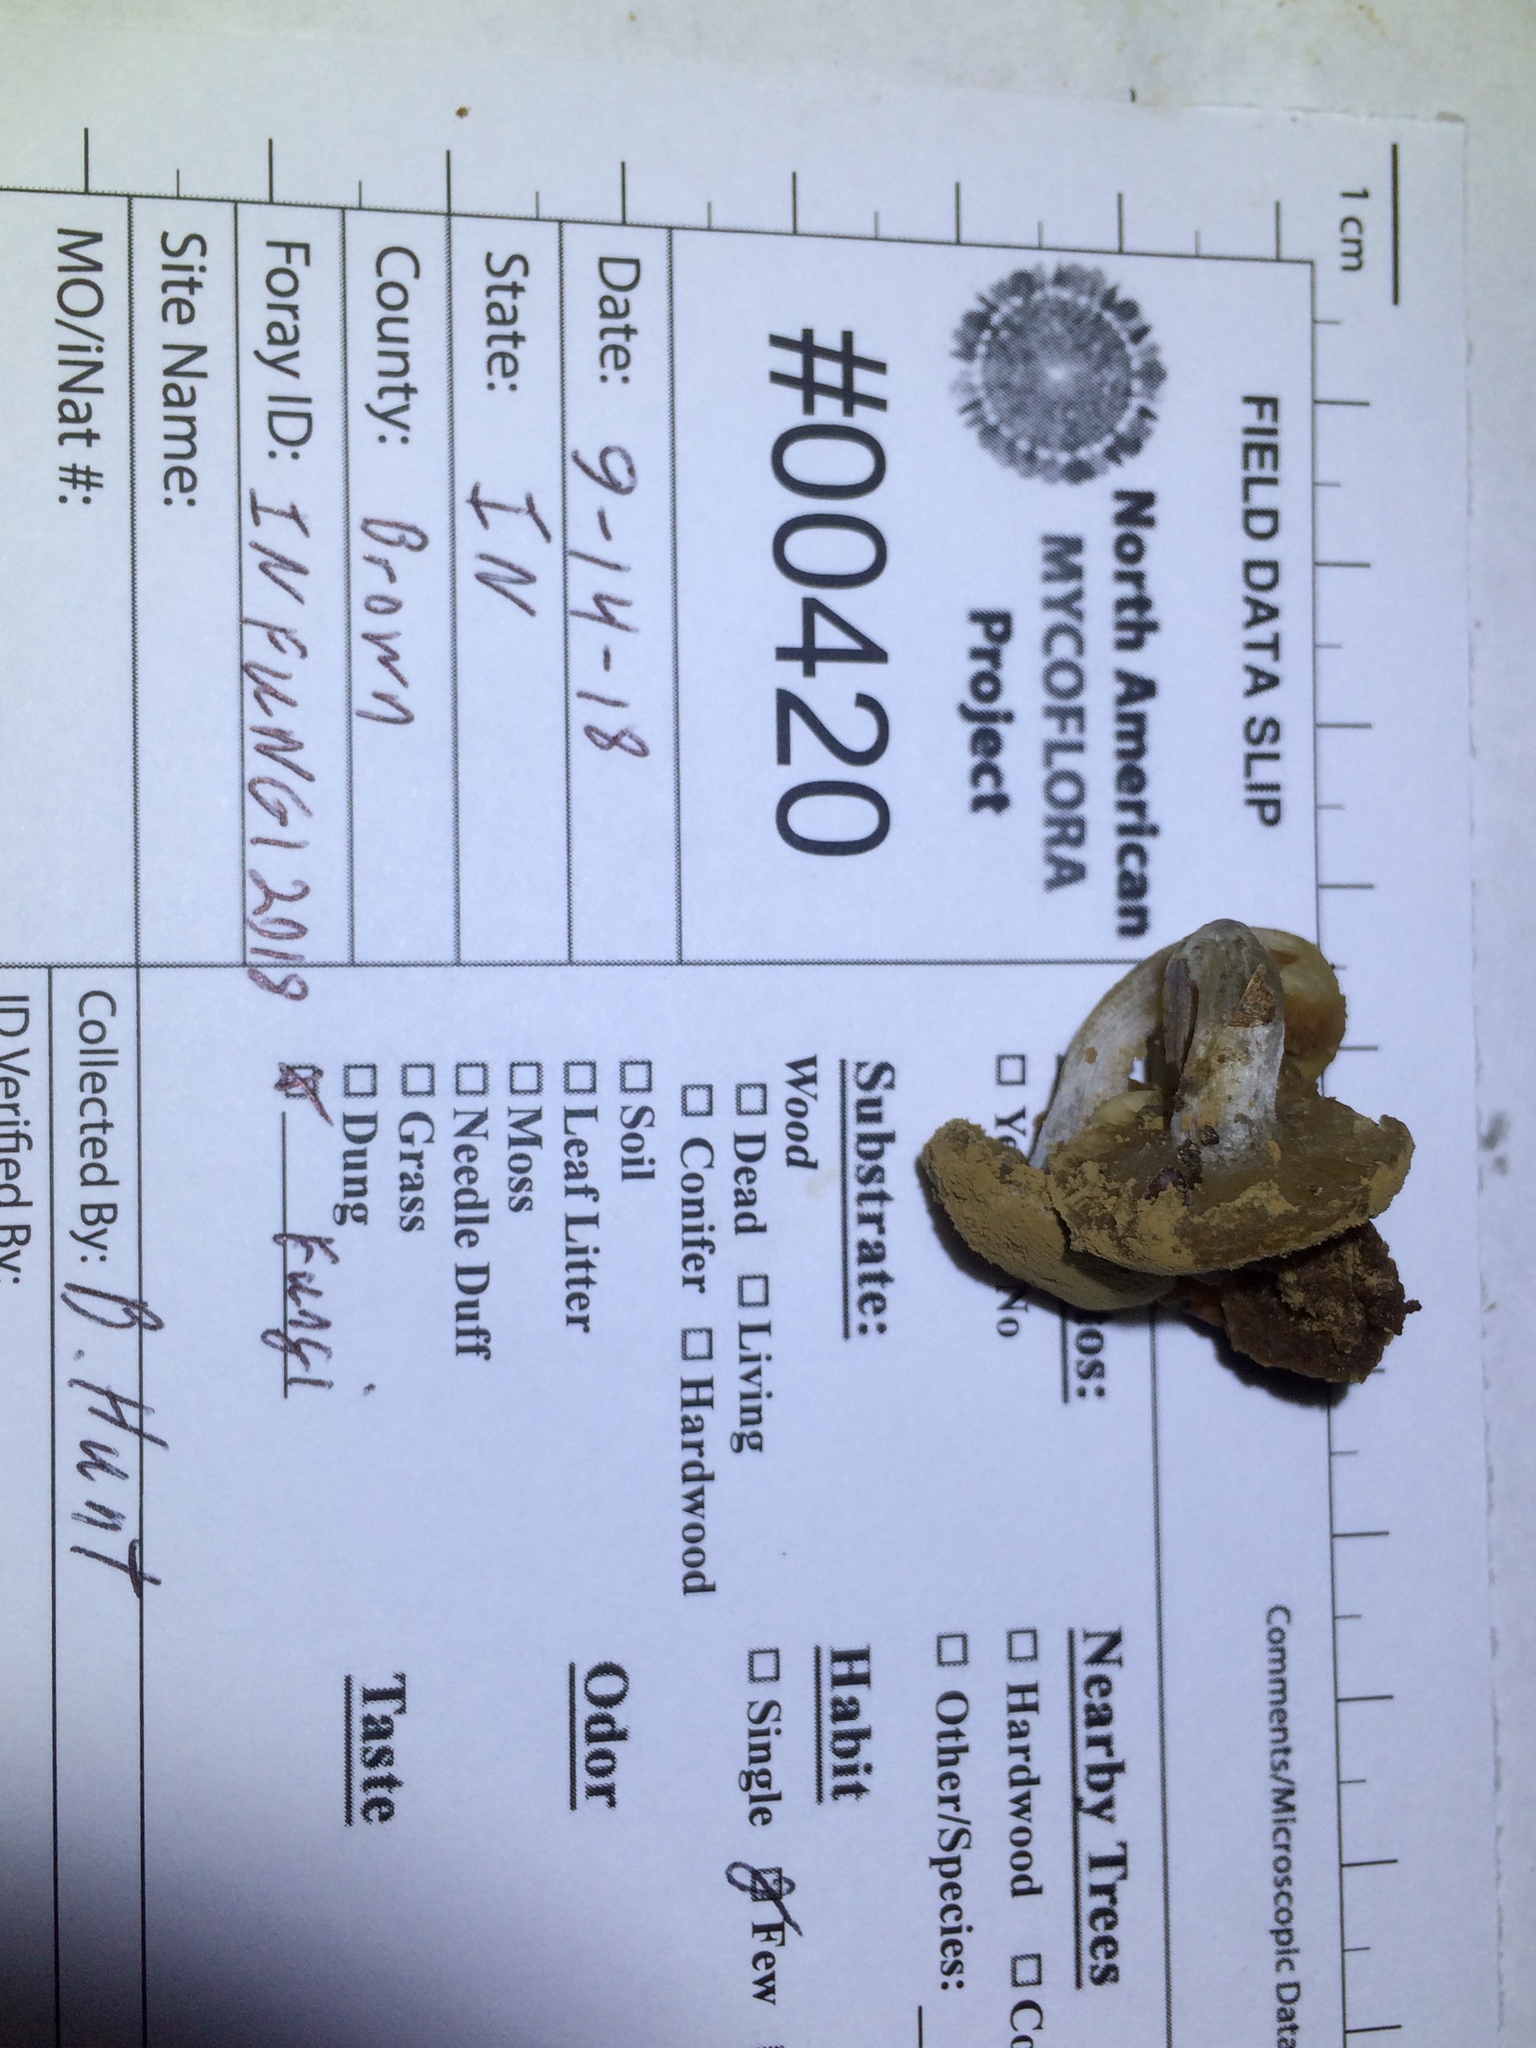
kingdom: Fungi
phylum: Basidiomycota
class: Agaricomycetes
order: Agaricales
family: Lyophyllaceae
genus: Asterophora
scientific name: Asterophora lycoperdoides
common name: Pick-a-back toadstool
